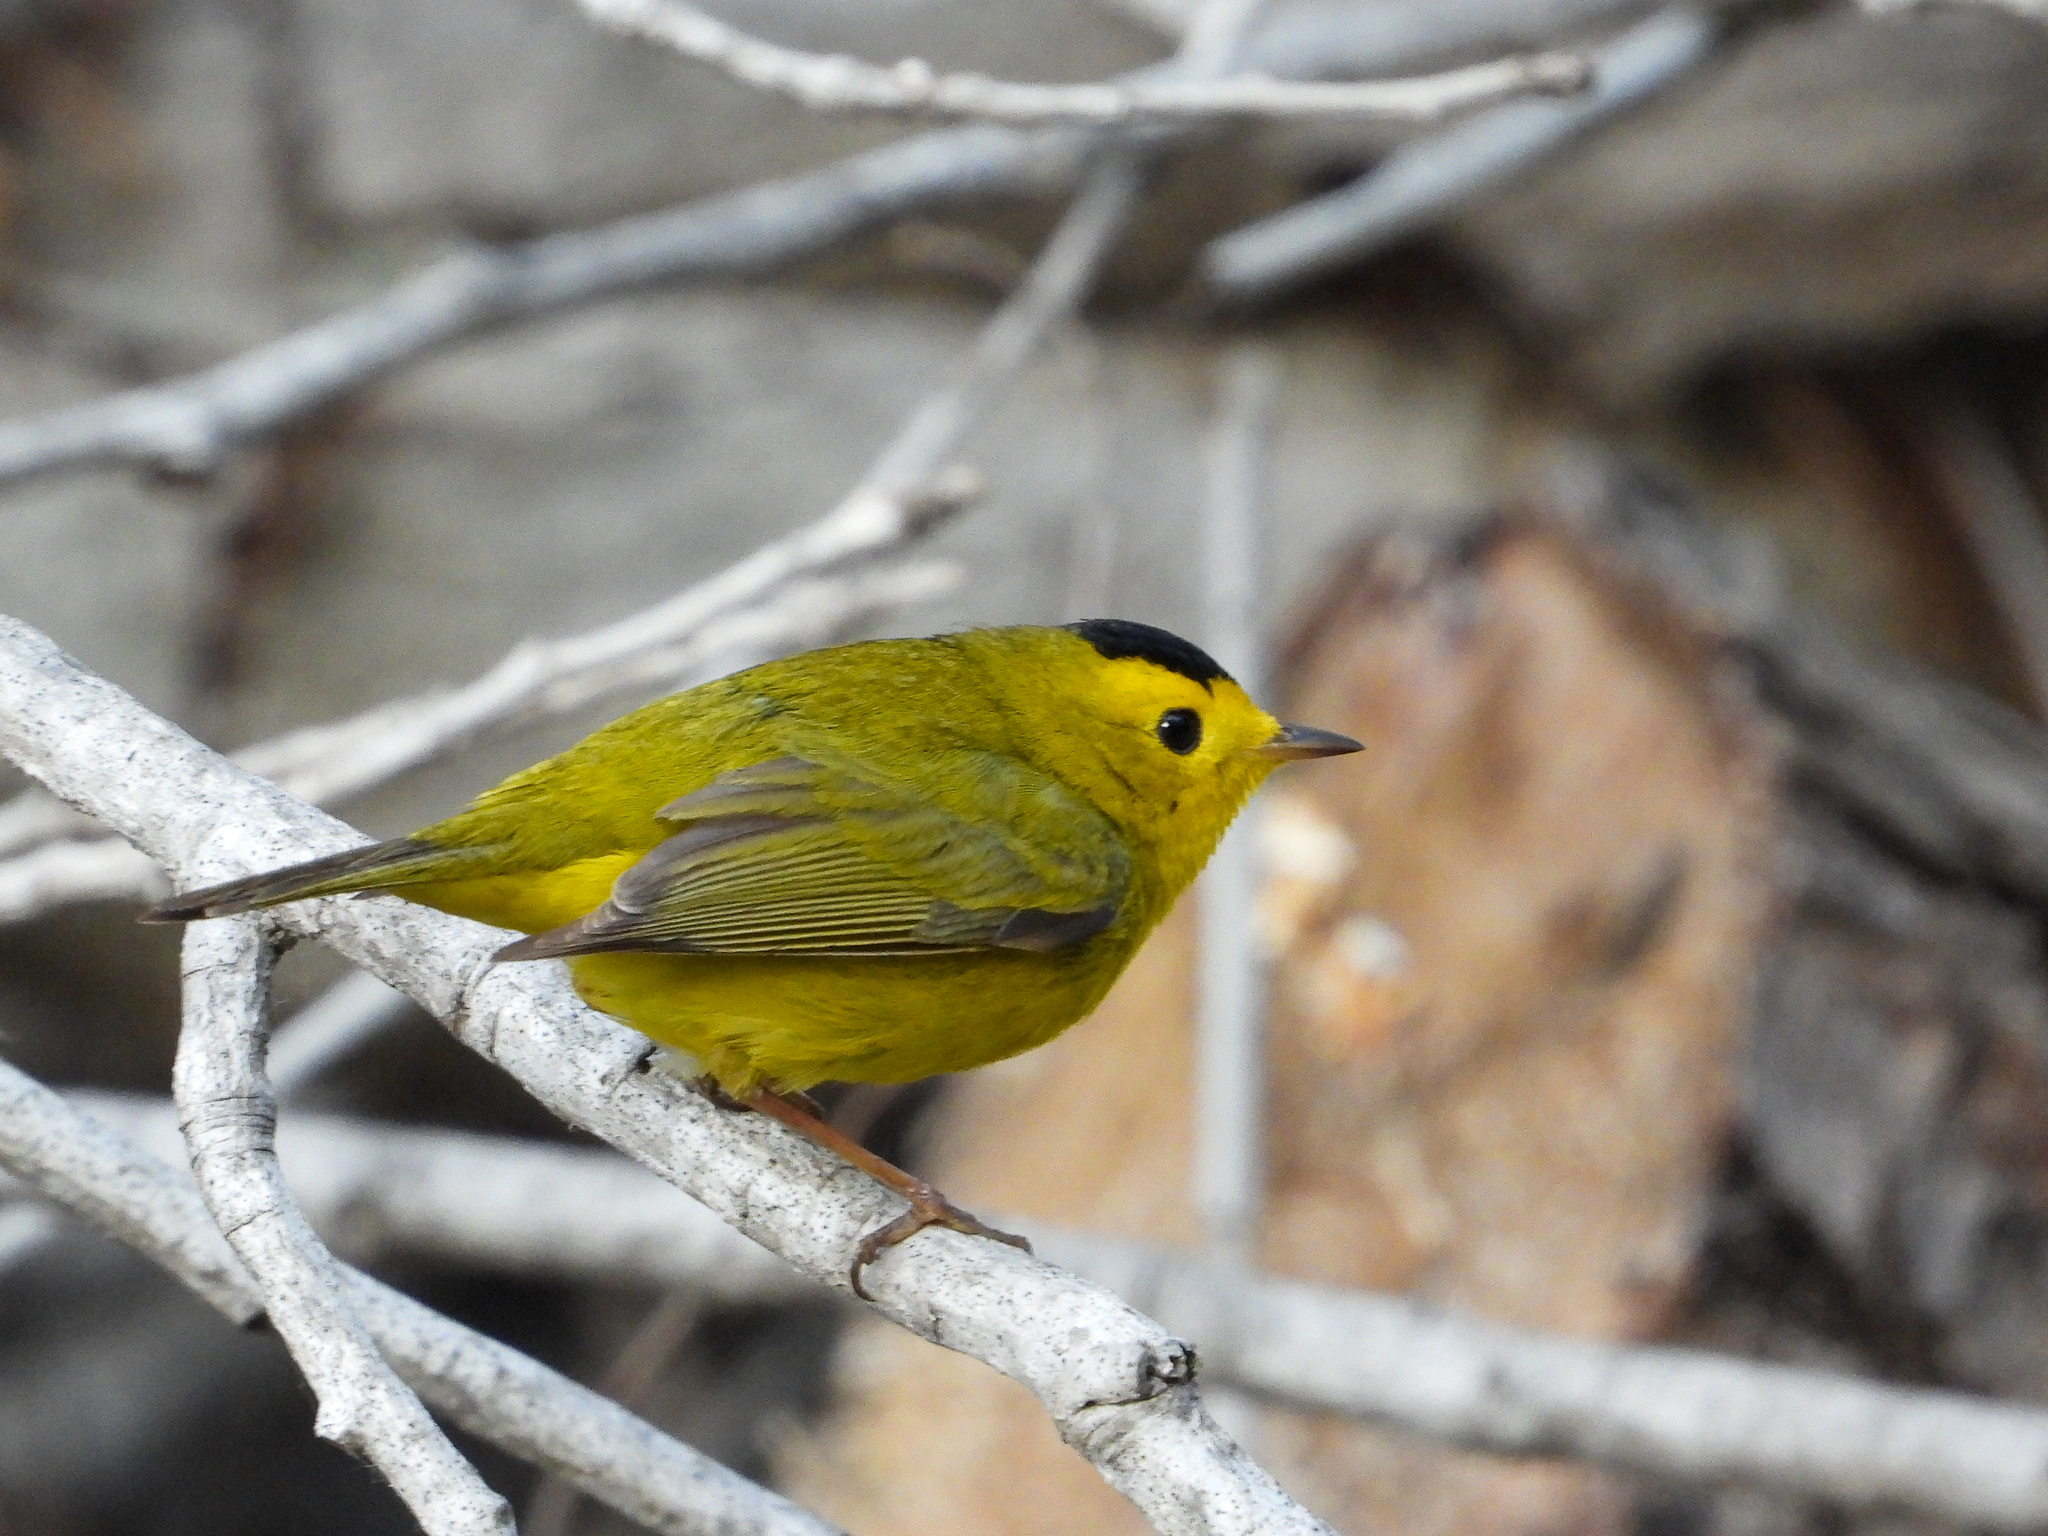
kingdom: Animalia
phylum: Chordata
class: Aves
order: Passeriformes
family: Parulidae
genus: Cardellina
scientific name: Cardellina pusilla
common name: Wilson's warbler
